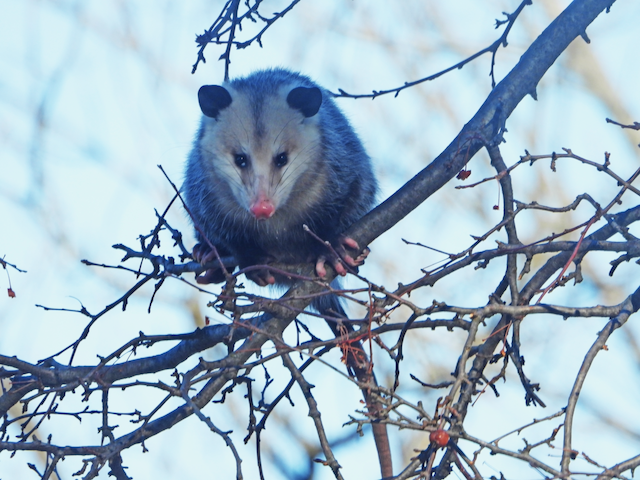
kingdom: Animalia
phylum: Chordata
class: Mammalia
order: Didelphimorphia
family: Didelphidae
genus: Didelphis
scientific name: Didelphis virginiana
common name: Virginia opossum
